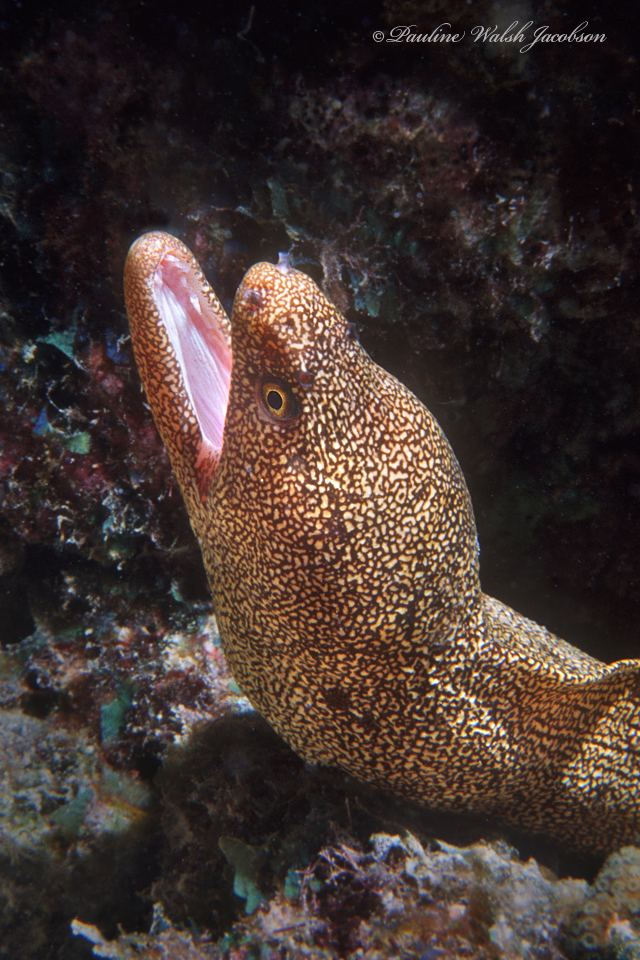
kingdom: Animalia
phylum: Chordata
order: Anguilliformes
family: Muraenidae
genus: Gymnothorax
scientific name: Gymnothorax miliaris
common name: Goldentail moray
